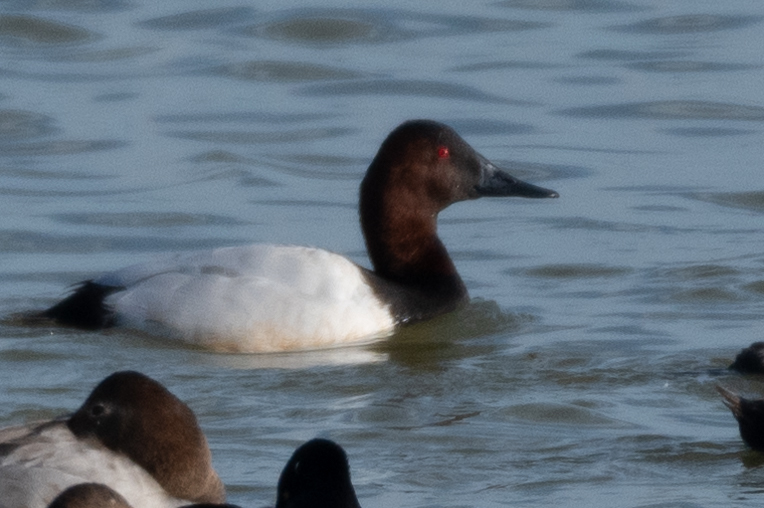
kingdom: Animalia
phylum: Chordata
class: Aves
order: Anseriformes
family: Anatidae
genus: Aythya
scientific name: Aythya valisineria
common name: Canvasback
